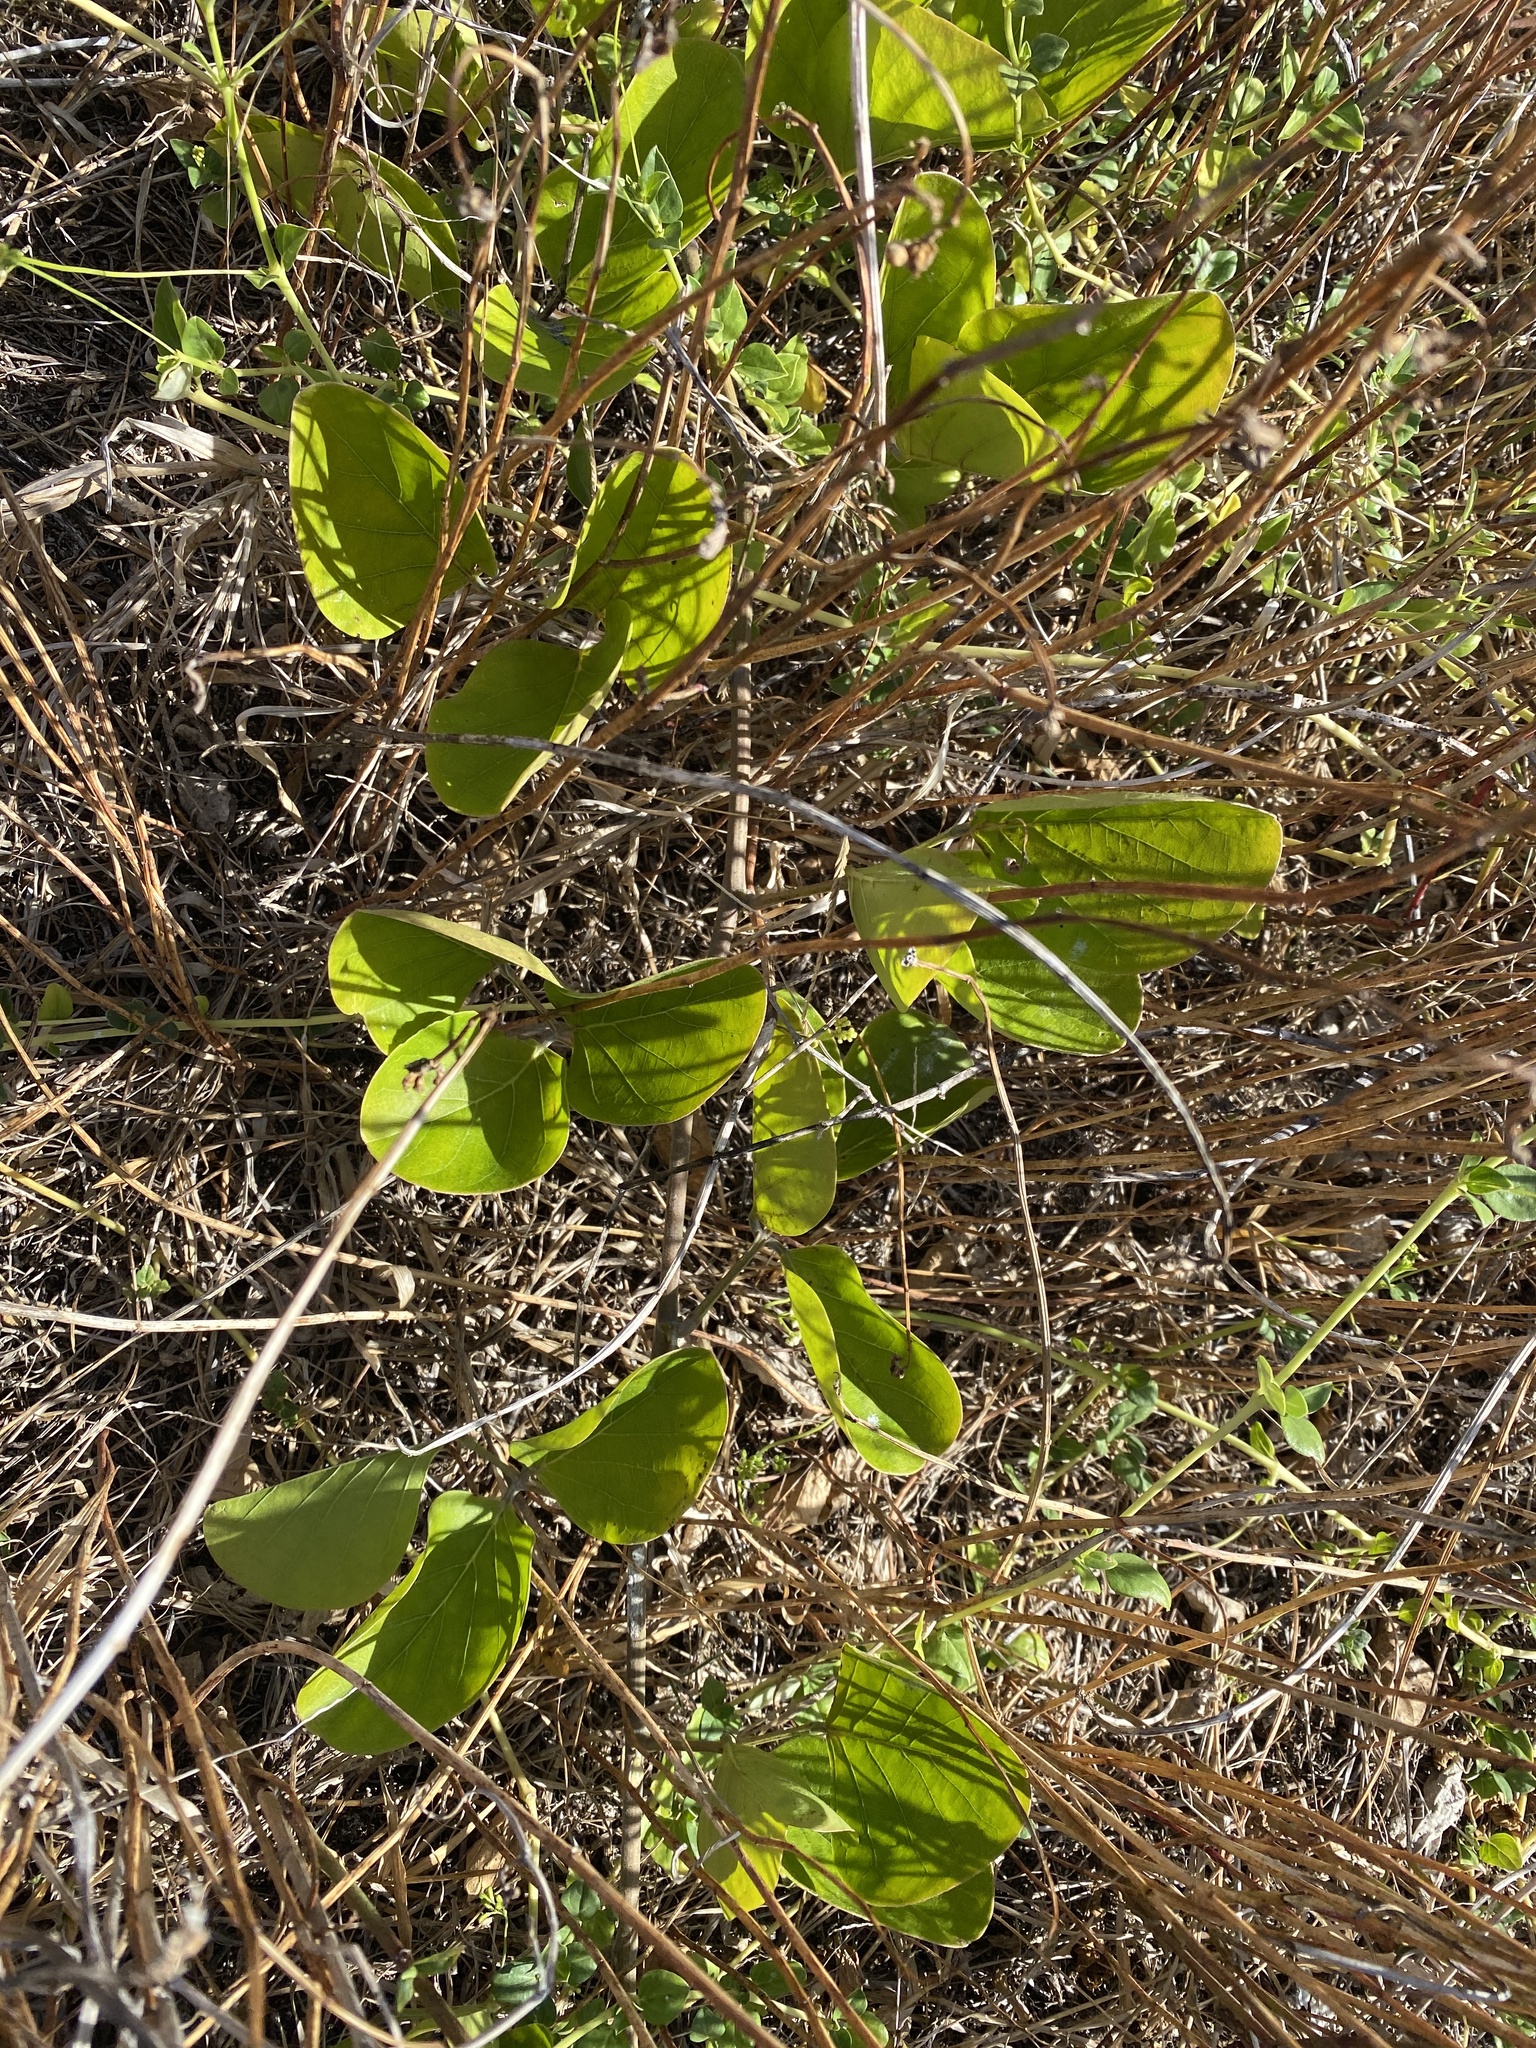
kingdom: Plantae
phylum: Tracheophyta
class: Magnoliopsida
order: Fabales
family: Fabaceae
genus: Canavalia
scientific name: Canavalia rosea
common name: Beach-bean
